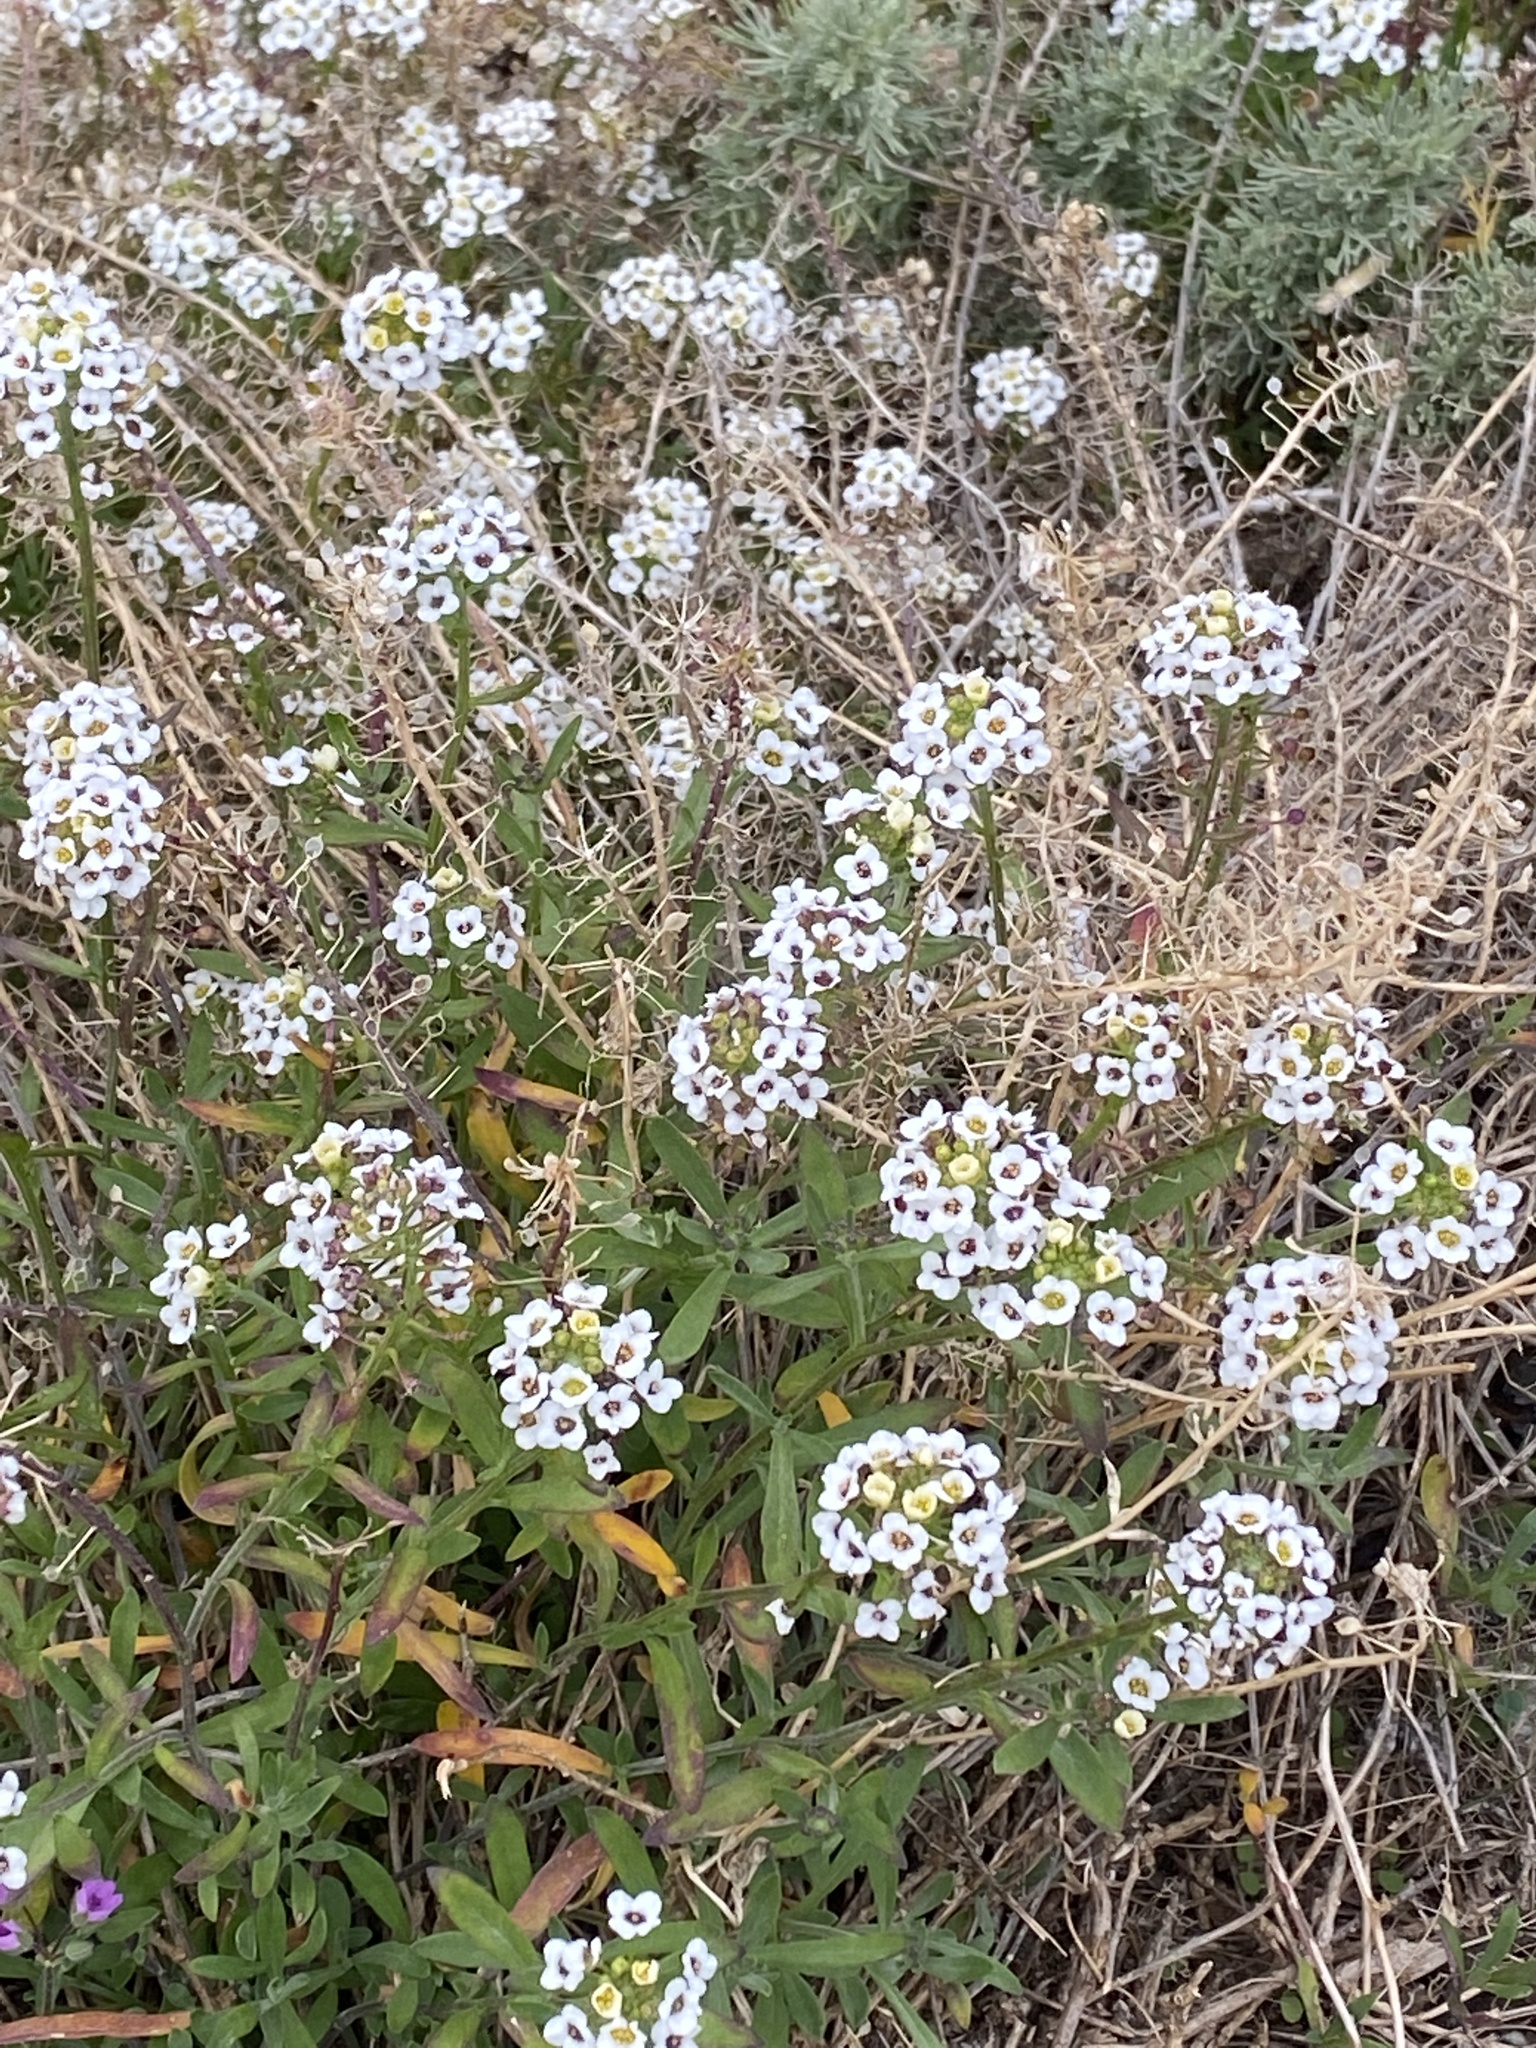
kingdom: Plantae
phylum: Tracheophyta
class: Magnoliopsida
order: Brassicales
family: Brassicaceae
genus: Lobularia
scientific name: Lobularia maritima
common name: Sweet alison
